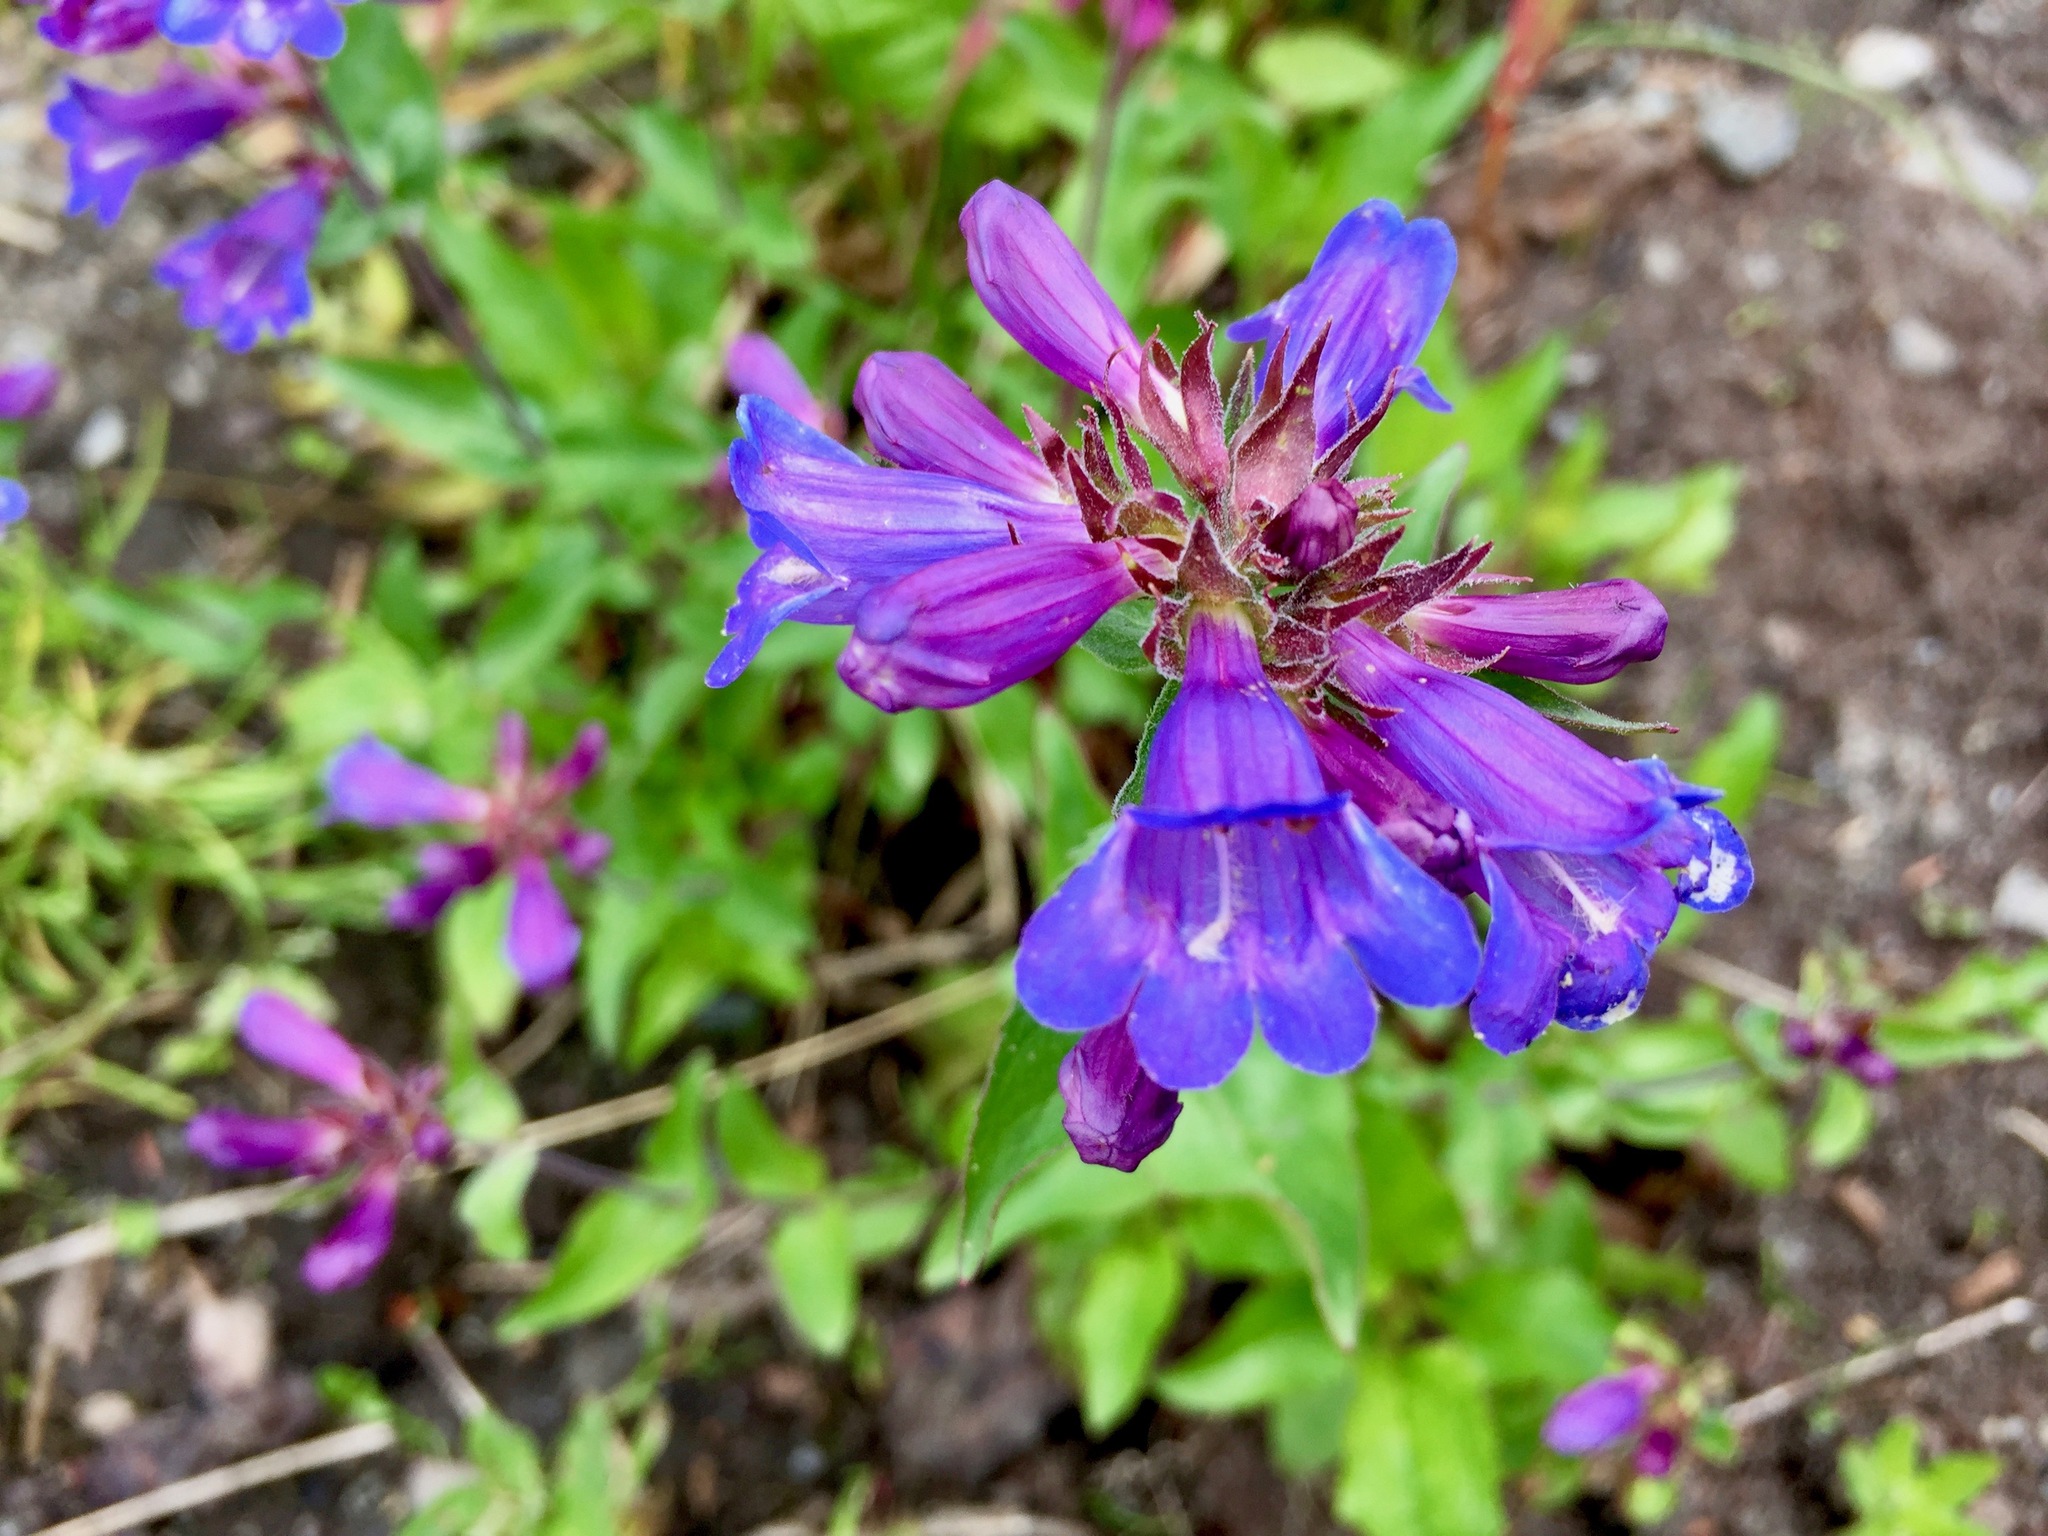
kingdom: Plantae
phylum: Tracheophyta
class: Magnoliopsida
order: Lamiales
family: Plantaginaceae
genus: Penstemon
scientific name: Penstemon serrulatus
